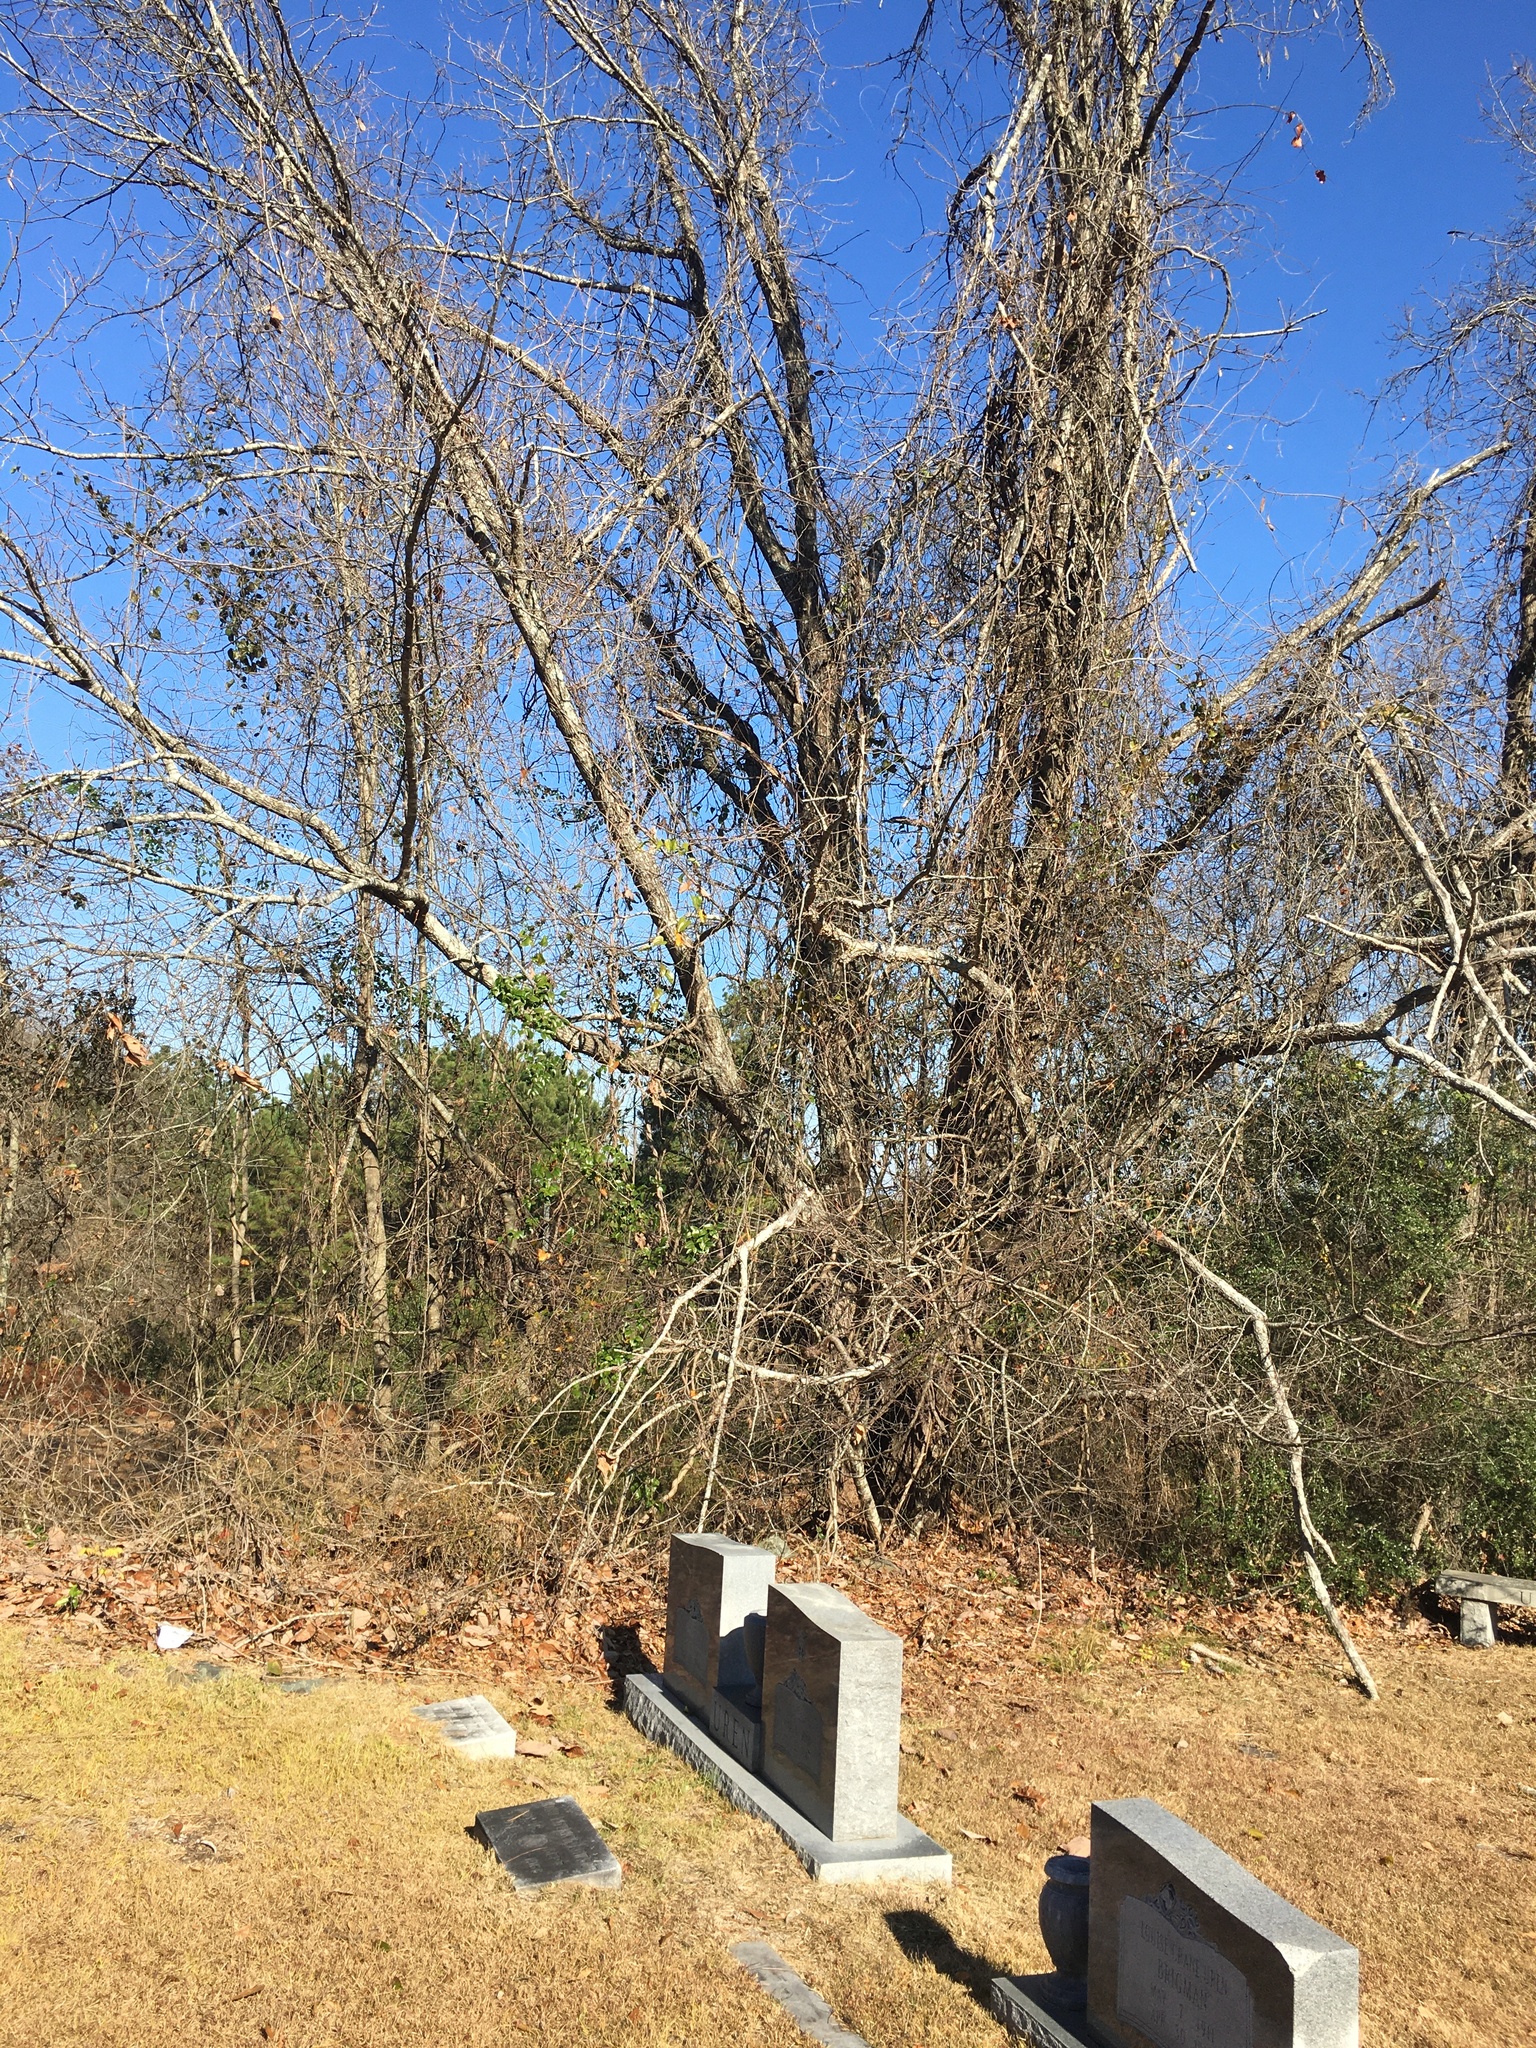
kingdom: Plantae
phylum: Tracheophyta
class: Magnoliopsida
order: Fagales
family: Fagaceae
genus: Quercus
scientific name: Quercus montana
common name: Chestnut oak
